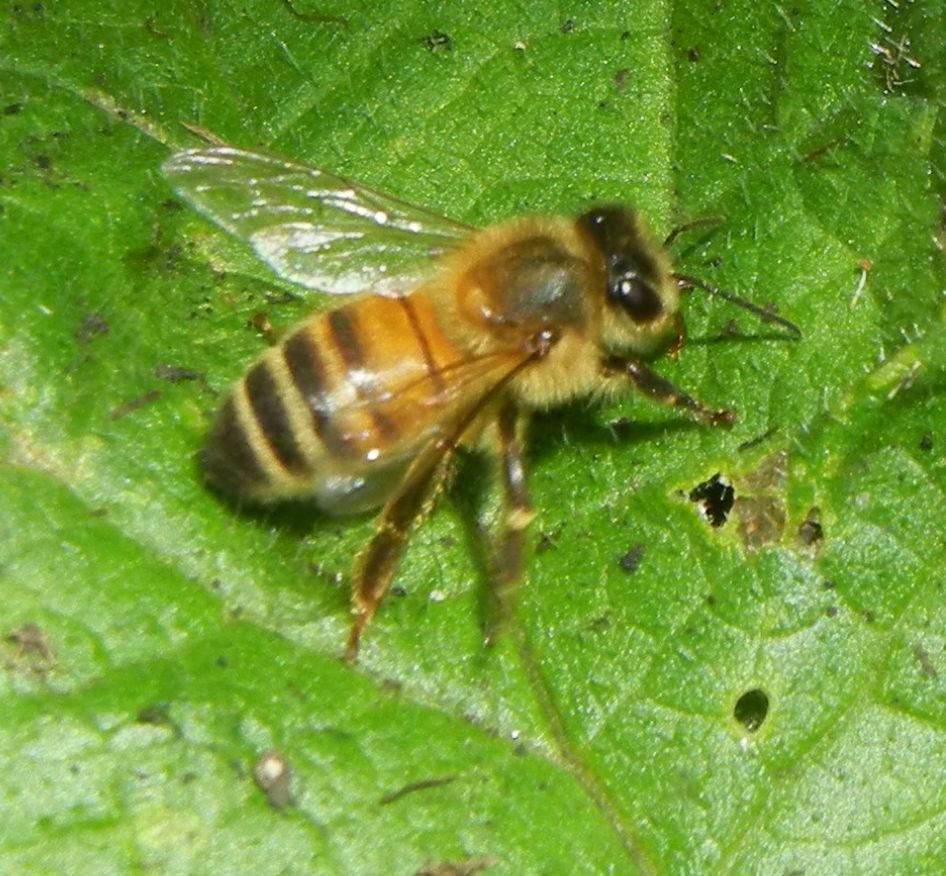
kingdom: Animalia
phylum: Arthropoda
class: Insecta
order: Hymenoptera
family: Apidae
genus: Apis
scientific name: Apis mellifera
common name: Honey bee
